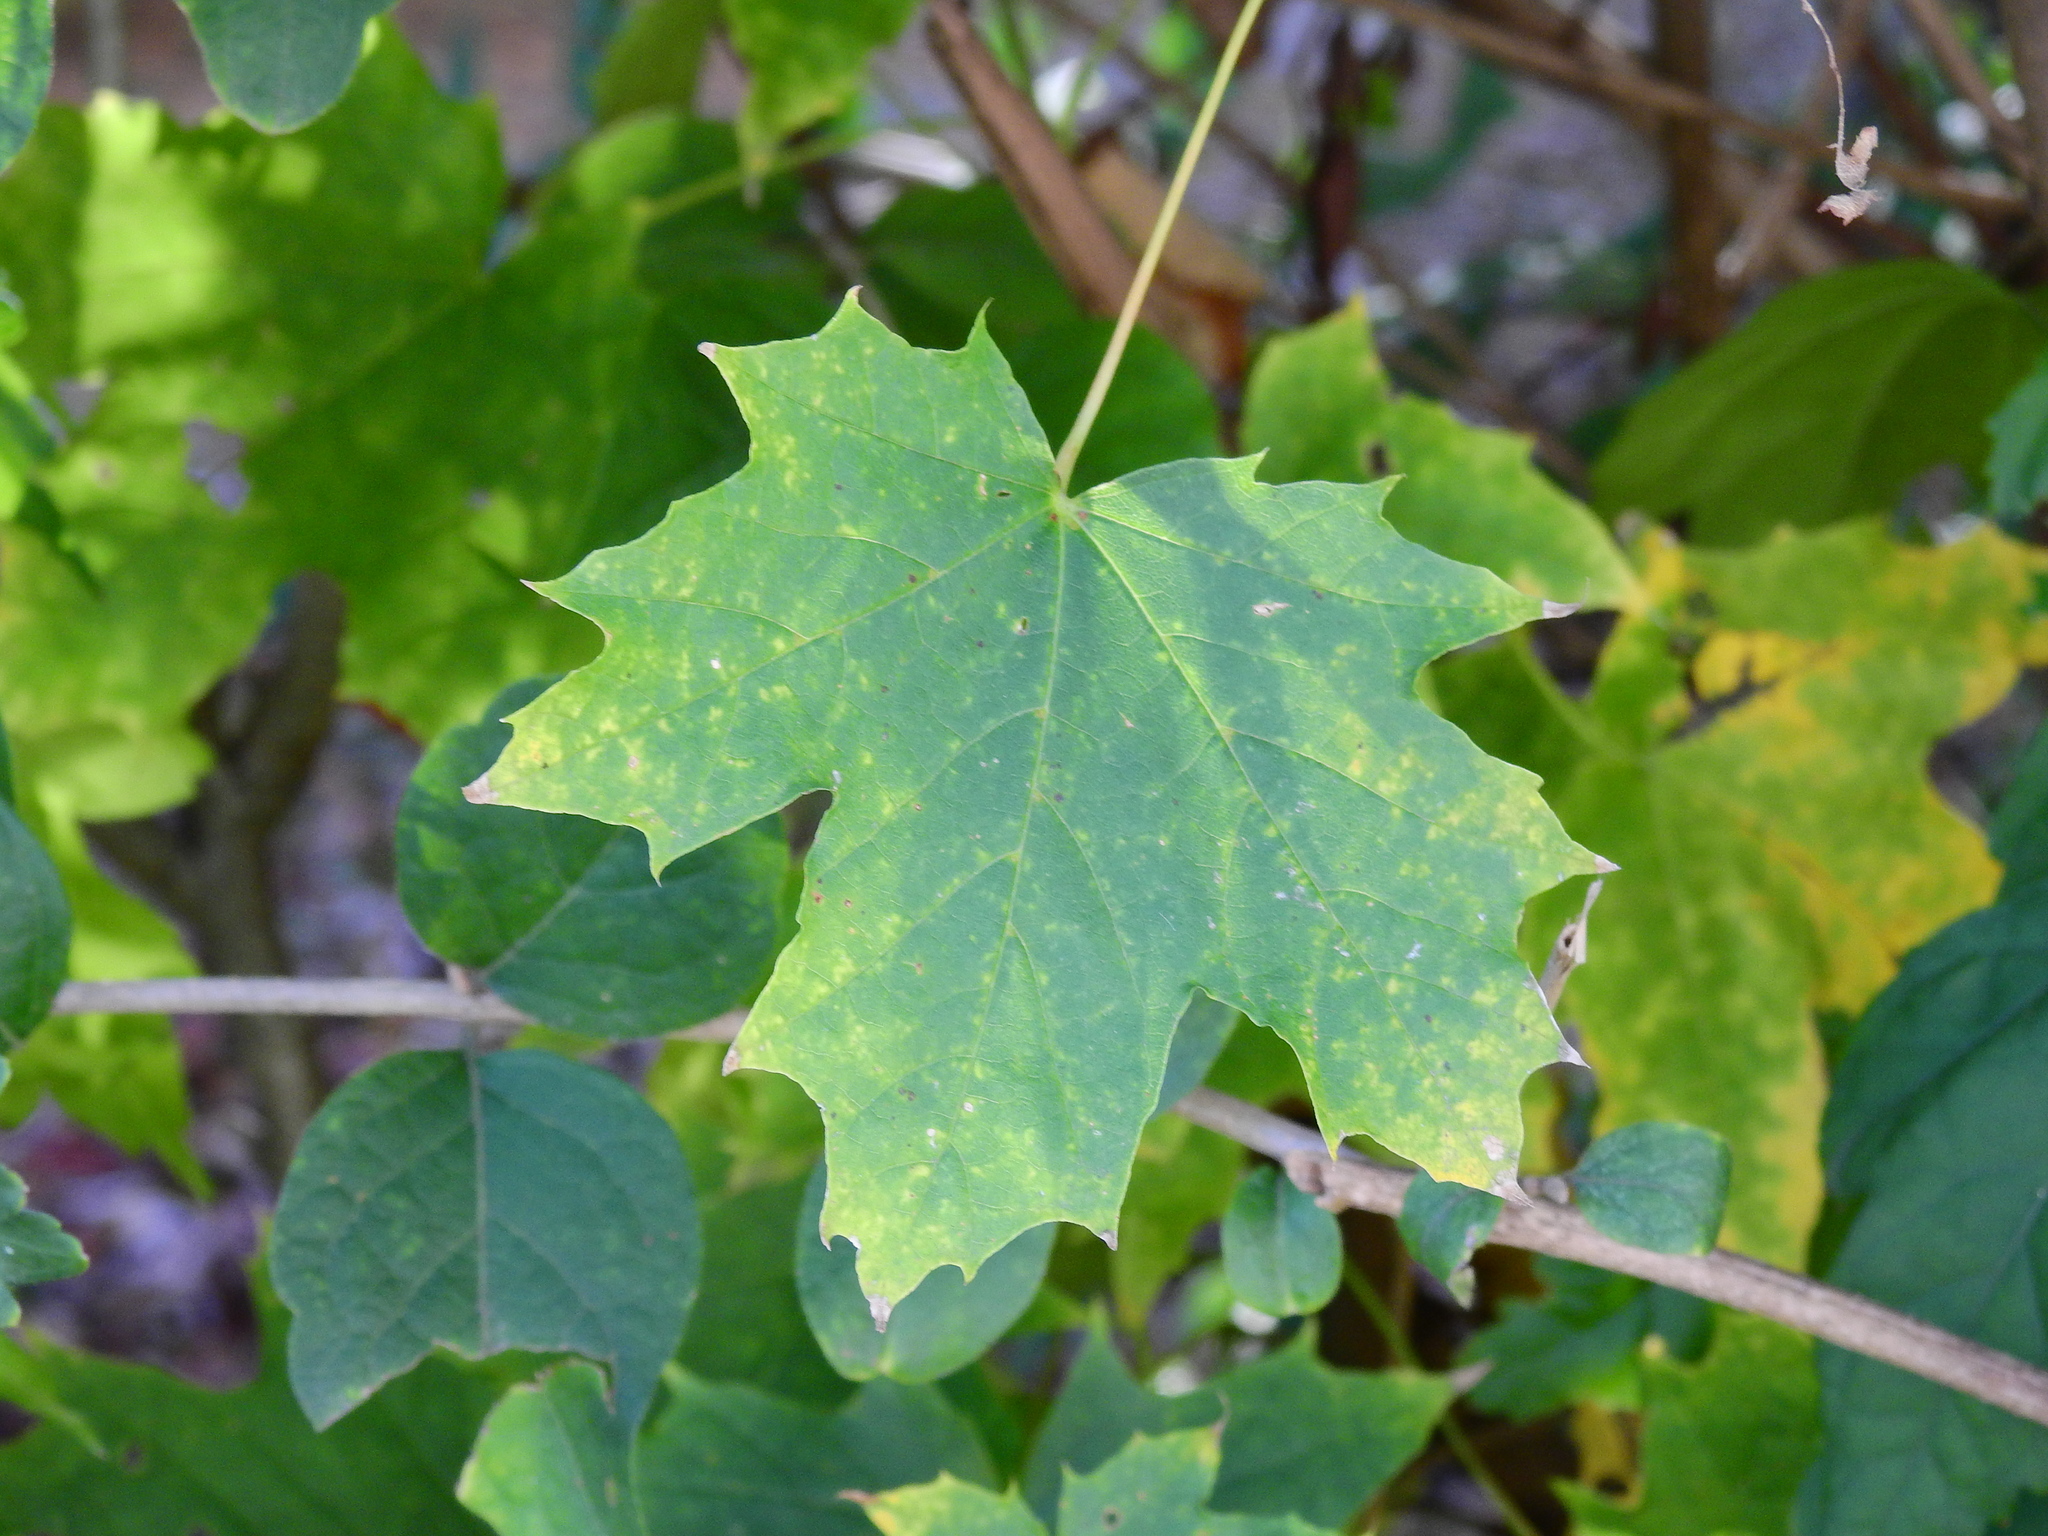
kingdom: Plantae
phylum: Tracheophyta
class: Magnoliopsida
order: Sapindales
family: Sapindaceae
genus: Acer
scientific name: Acer platanoides
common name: Norway maple
